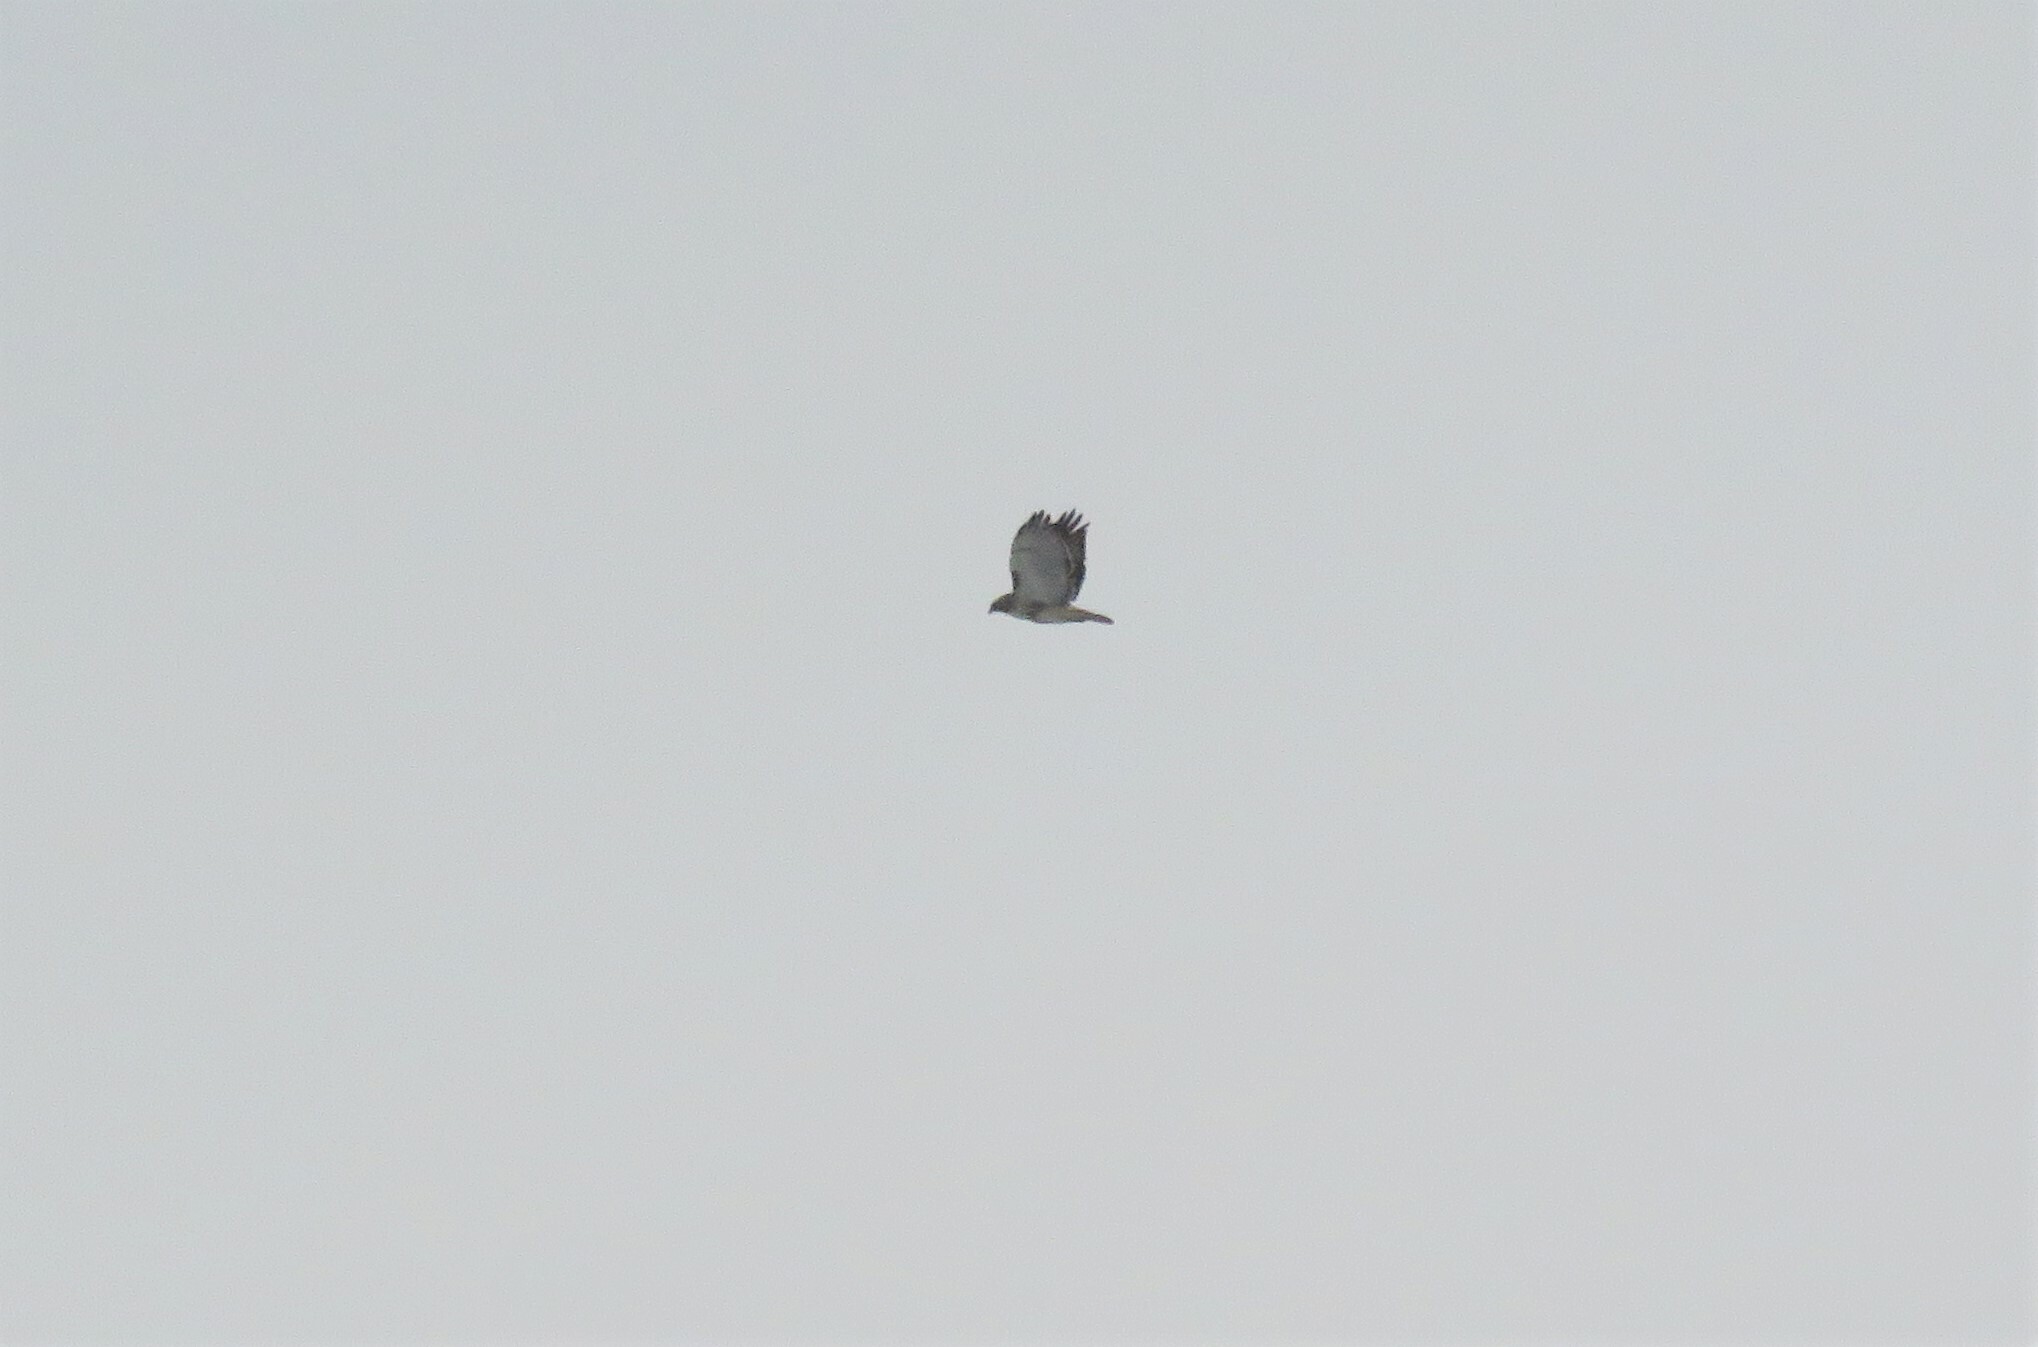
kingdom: Animalia
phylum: Chordata
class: Aves
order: Accipitriformes
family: Accipitridae
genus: Buteo
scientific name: Buteo jamaicensis
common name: Red-tailed hawk
